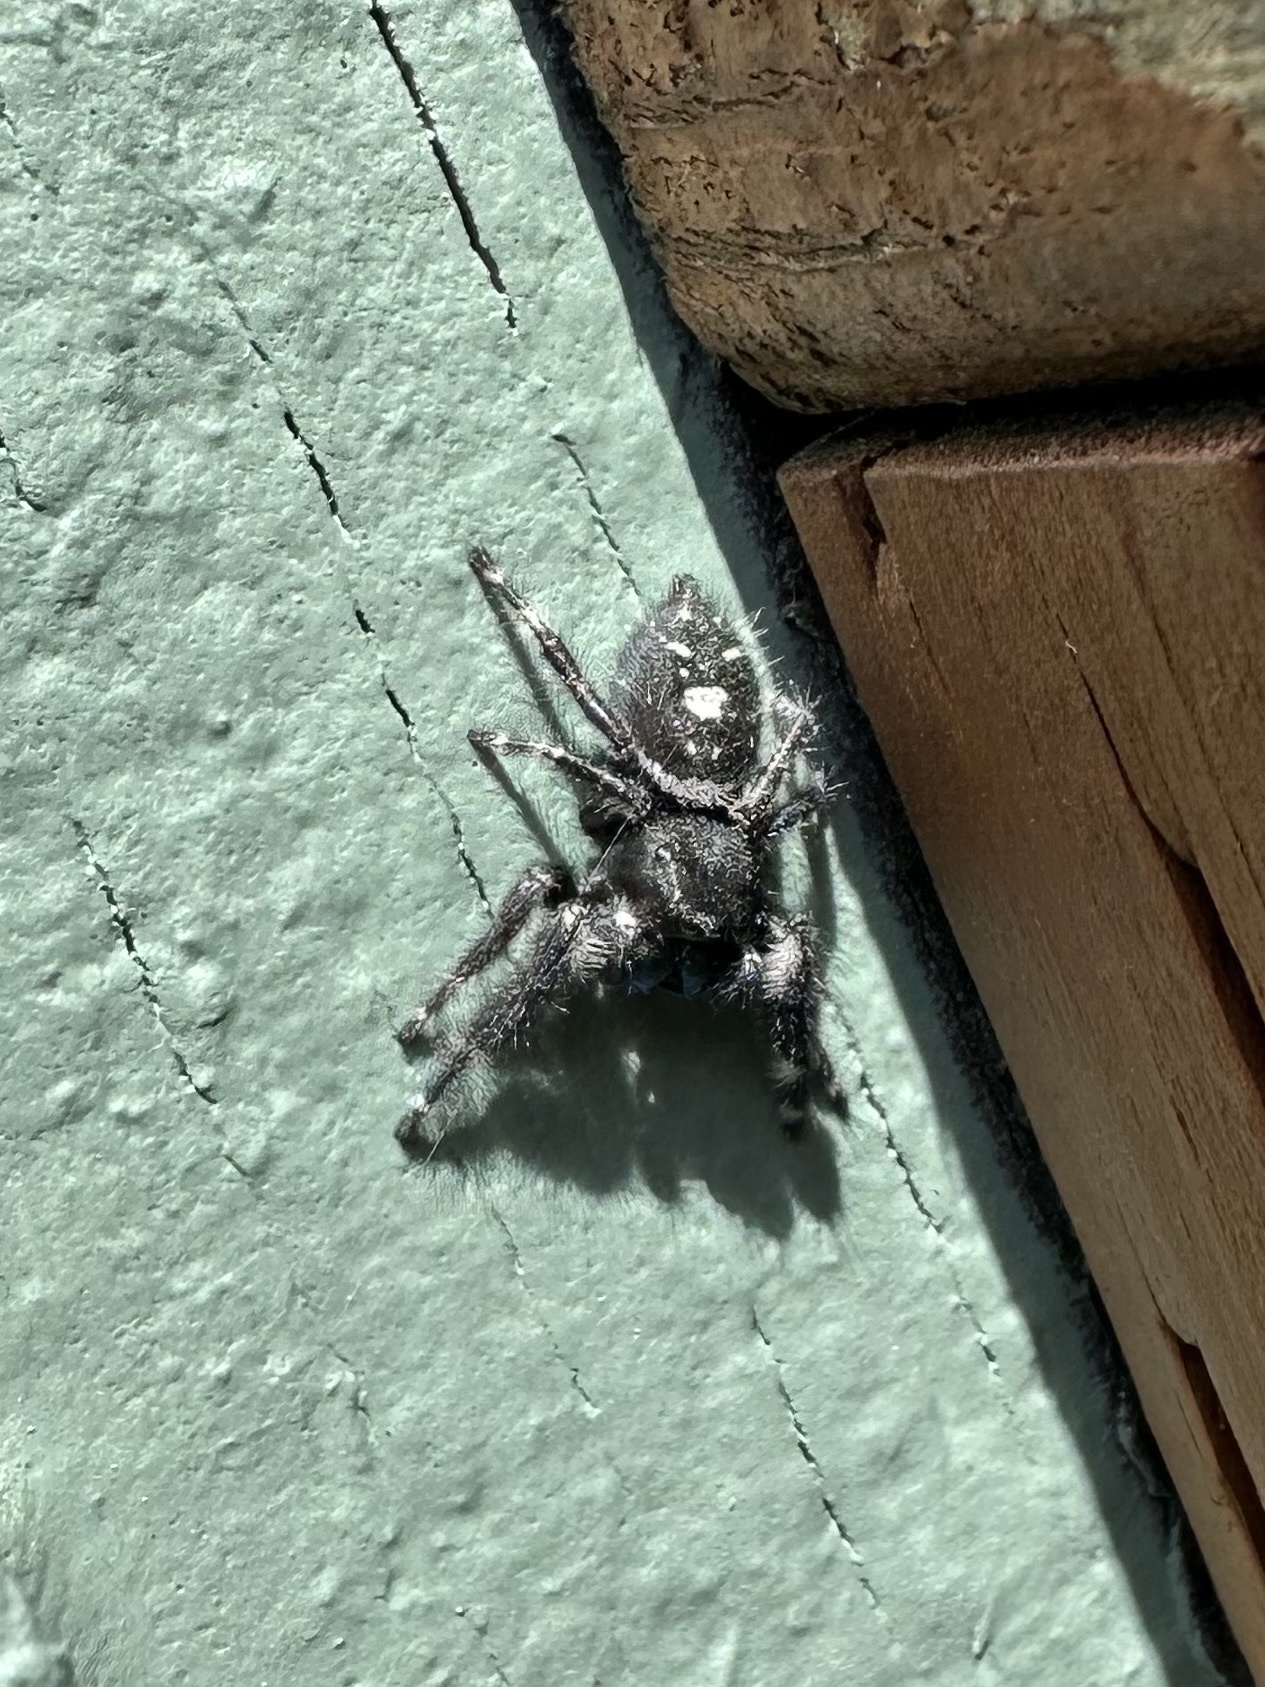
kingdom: Animalia
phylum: Arthropoda
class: Arachnida
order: Araneae
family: Salticidae
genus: Phidippus
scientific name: Phidippus audax
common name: Bold jumper
